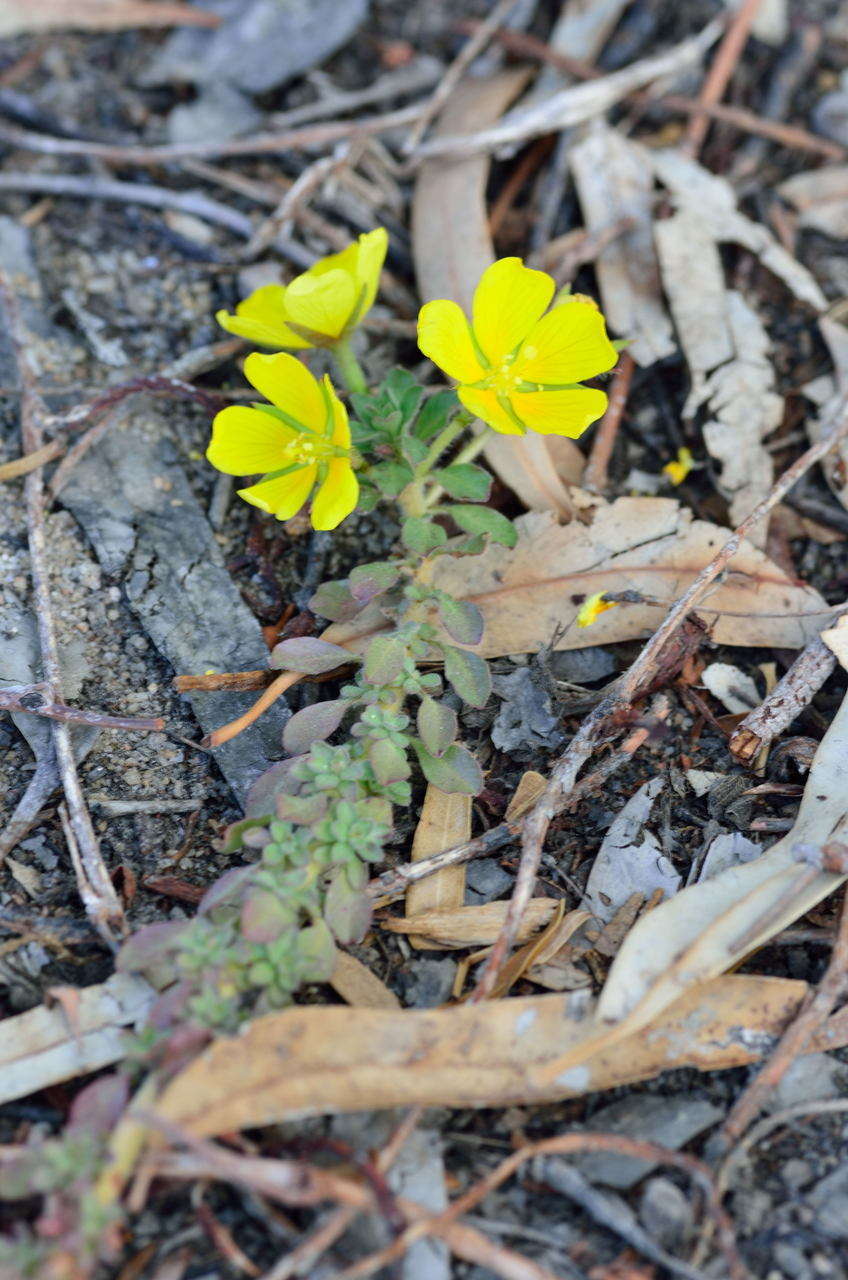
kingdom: Plantae
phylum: Tracheophyta
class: Magnoliopsida
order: Myrtales
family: Onagraceae
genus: Ludwigia
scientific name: Ludwigia peploides
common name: Floating primrose-willow
